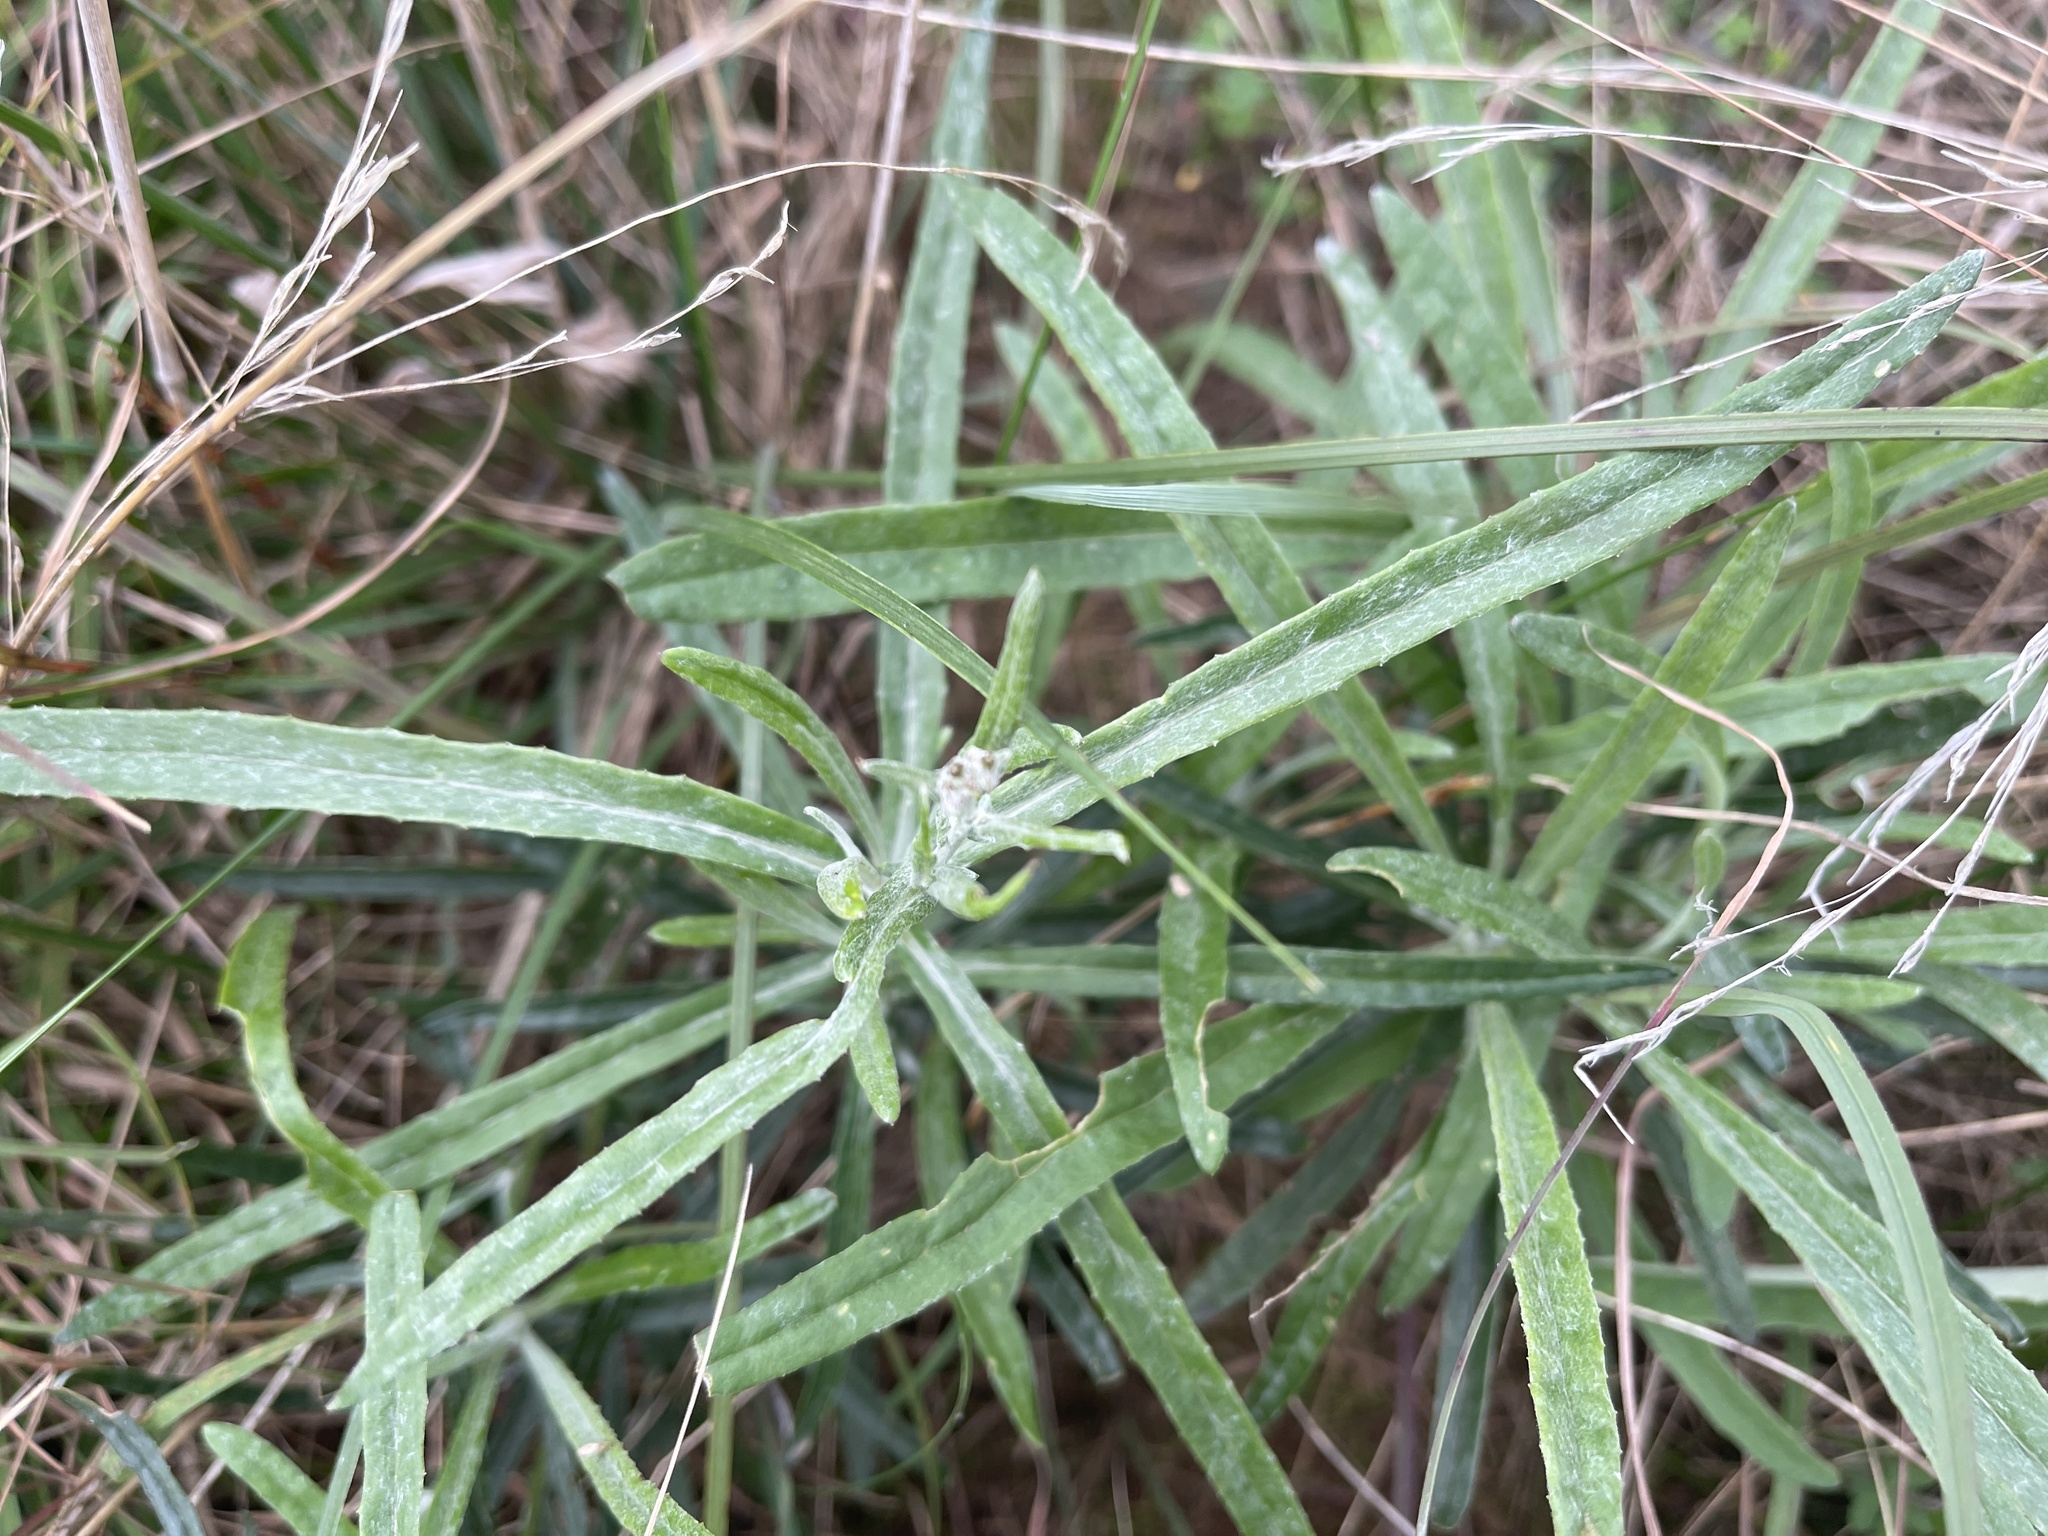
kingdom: Plantae
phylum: Tracheophyta
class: Magnoliopsida
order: Asterales
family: Asteraceae
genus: Senecio
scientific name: Senecio quadridentatus
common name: Cotton fireweed
